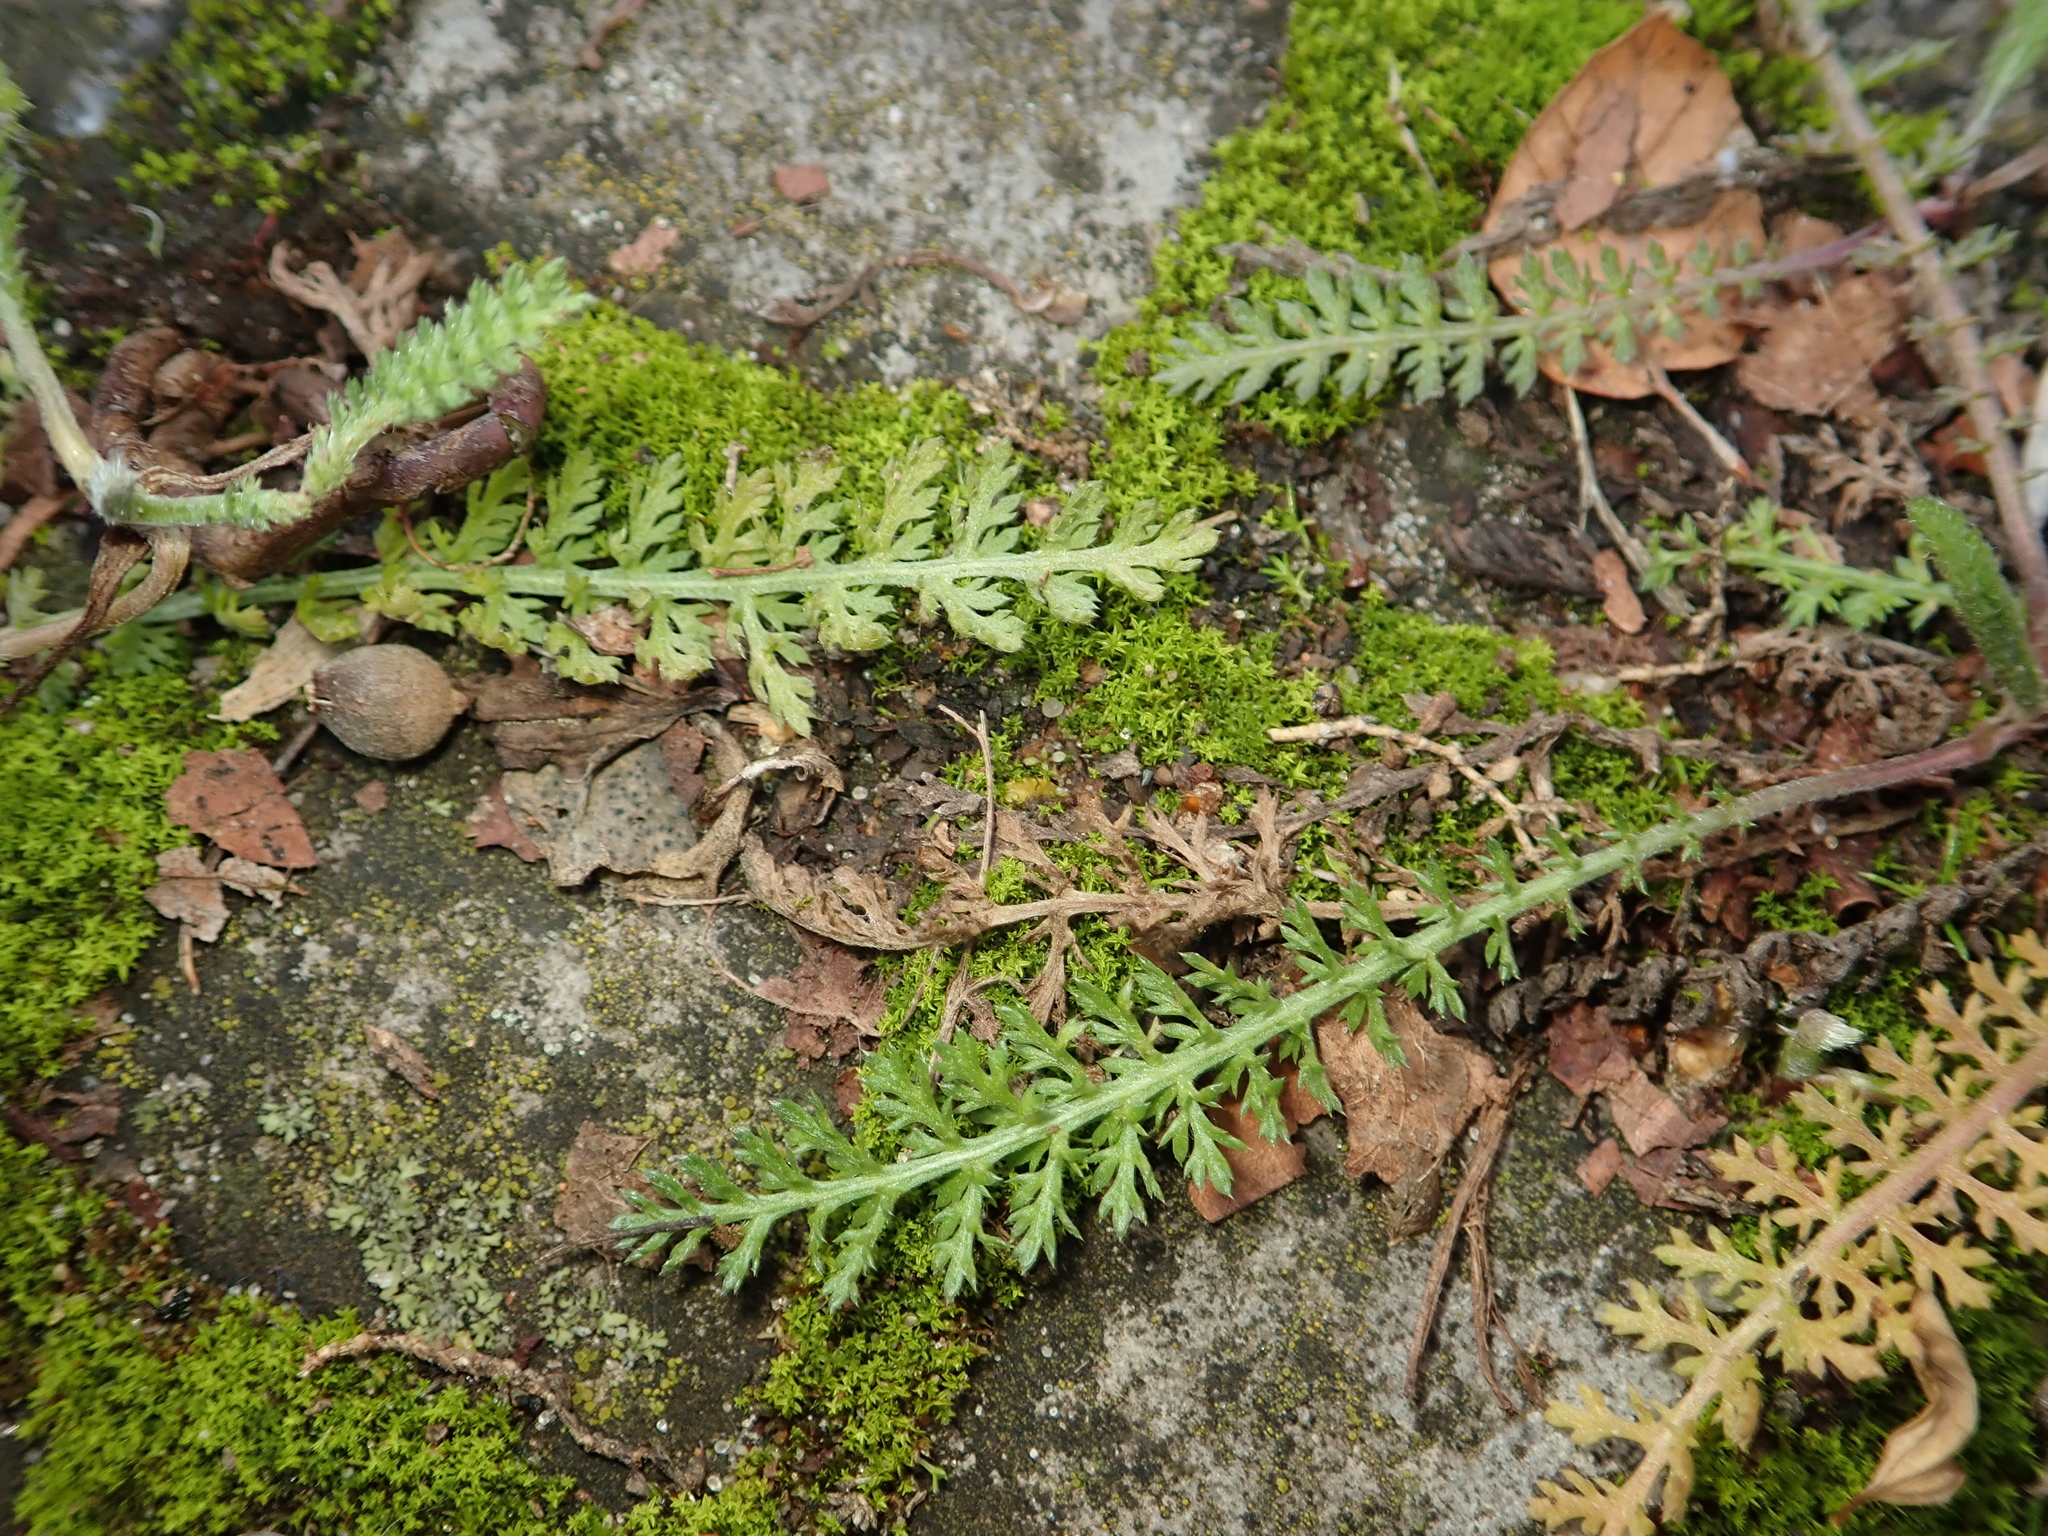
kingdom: Plantae
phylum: Tracheophyta
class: Magnoliopsida
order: Asterales
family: Asteraceae
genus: Achillea
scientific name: Achillea millefolium
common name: Yarrow
